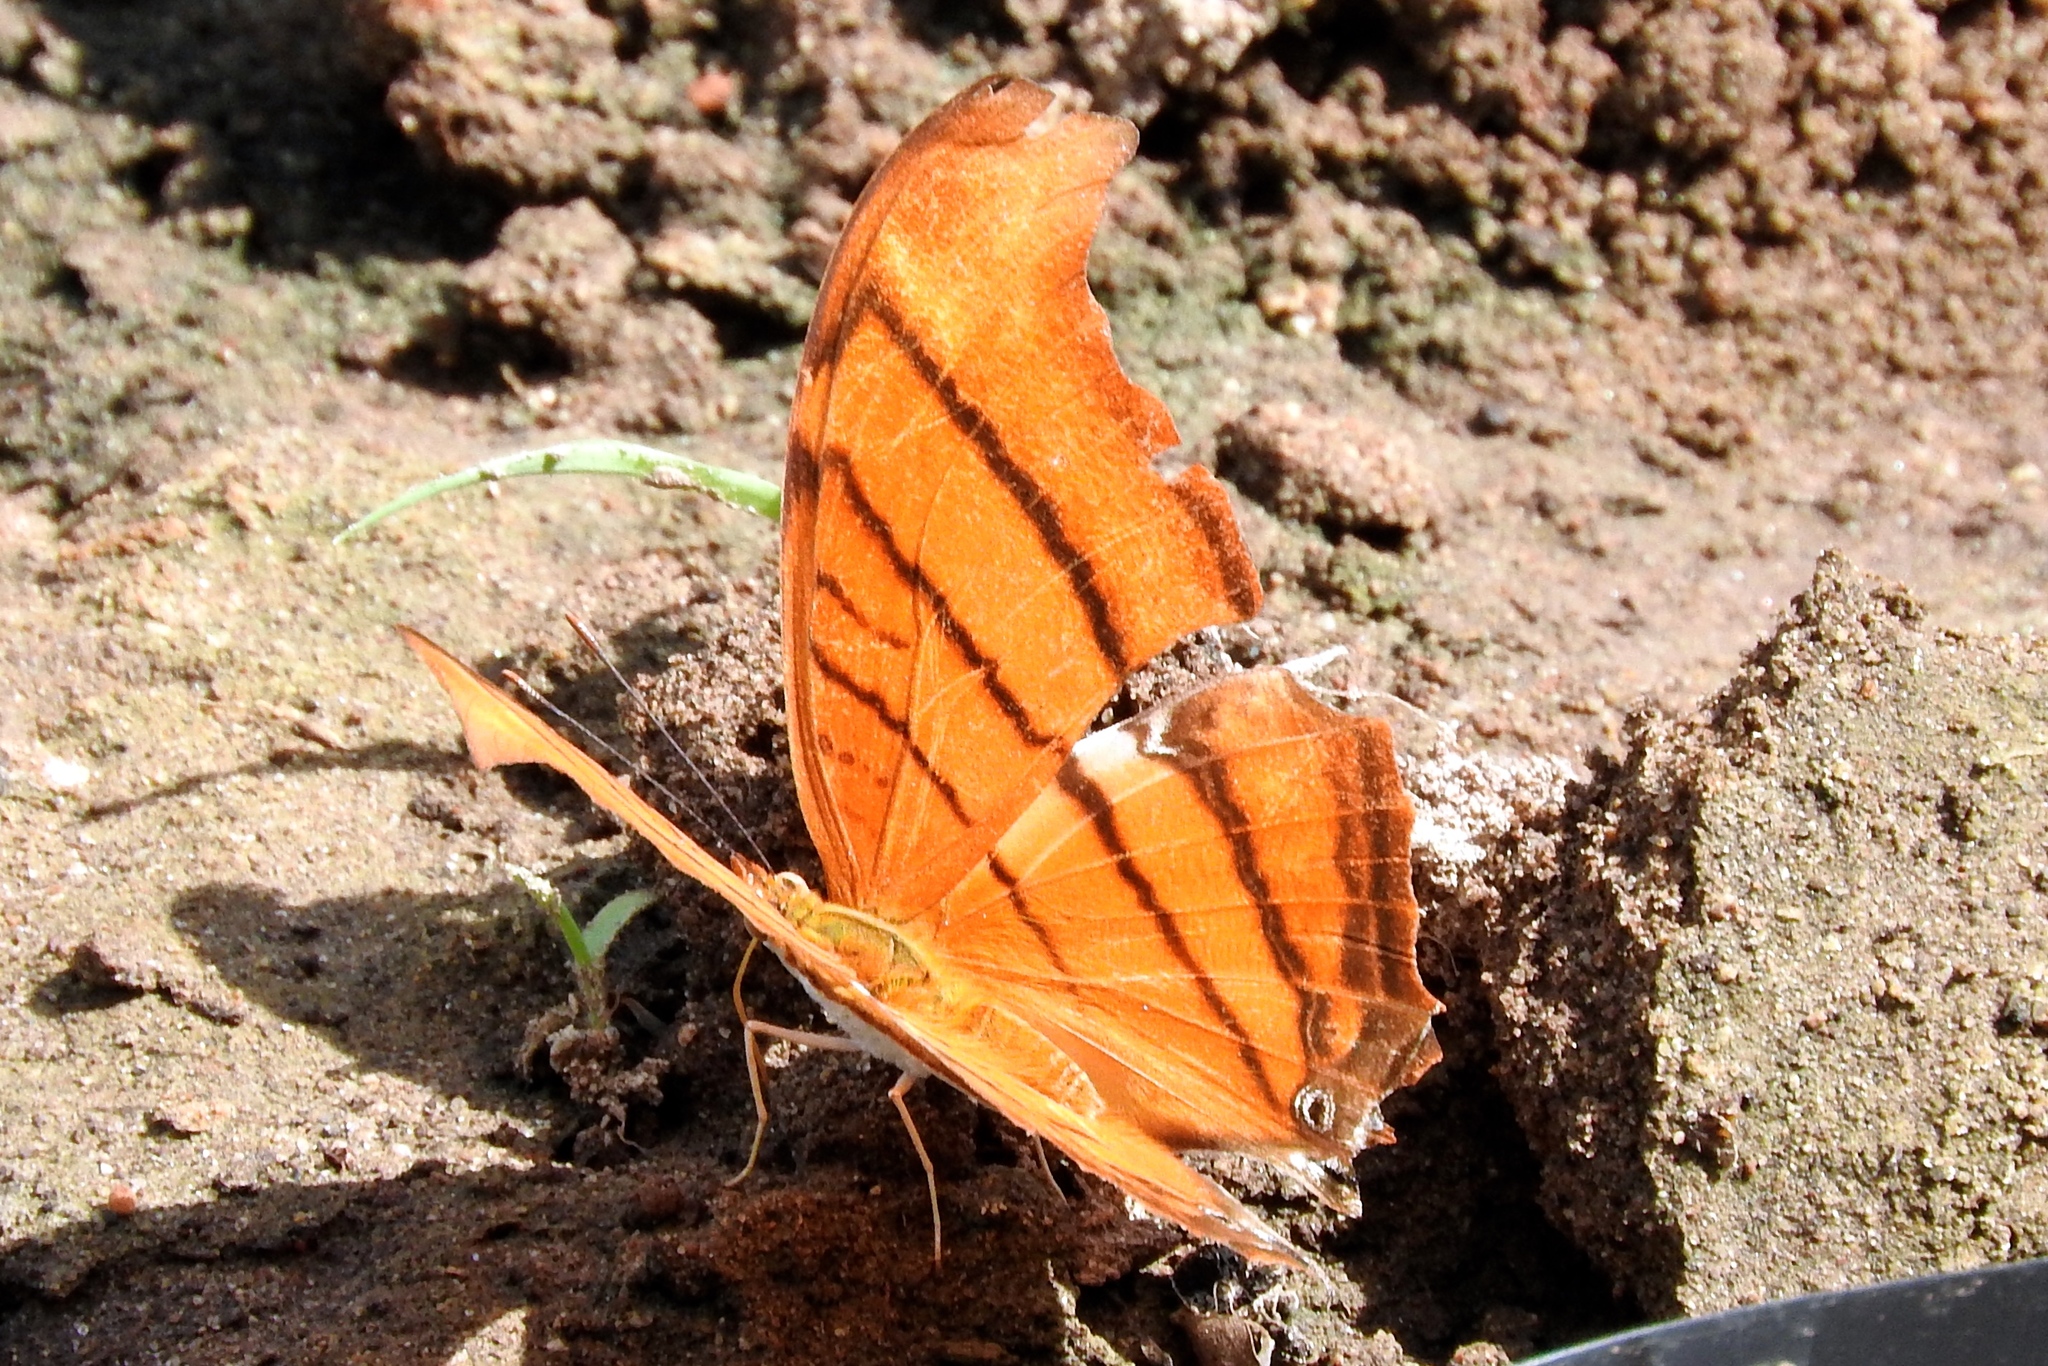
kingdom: Animalia
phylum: Arthropoda
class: Insecta
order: Lepidoptera
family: Nymphalidae
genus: Marpesia
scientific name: Marpesia petreus
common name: Red dagger wing
